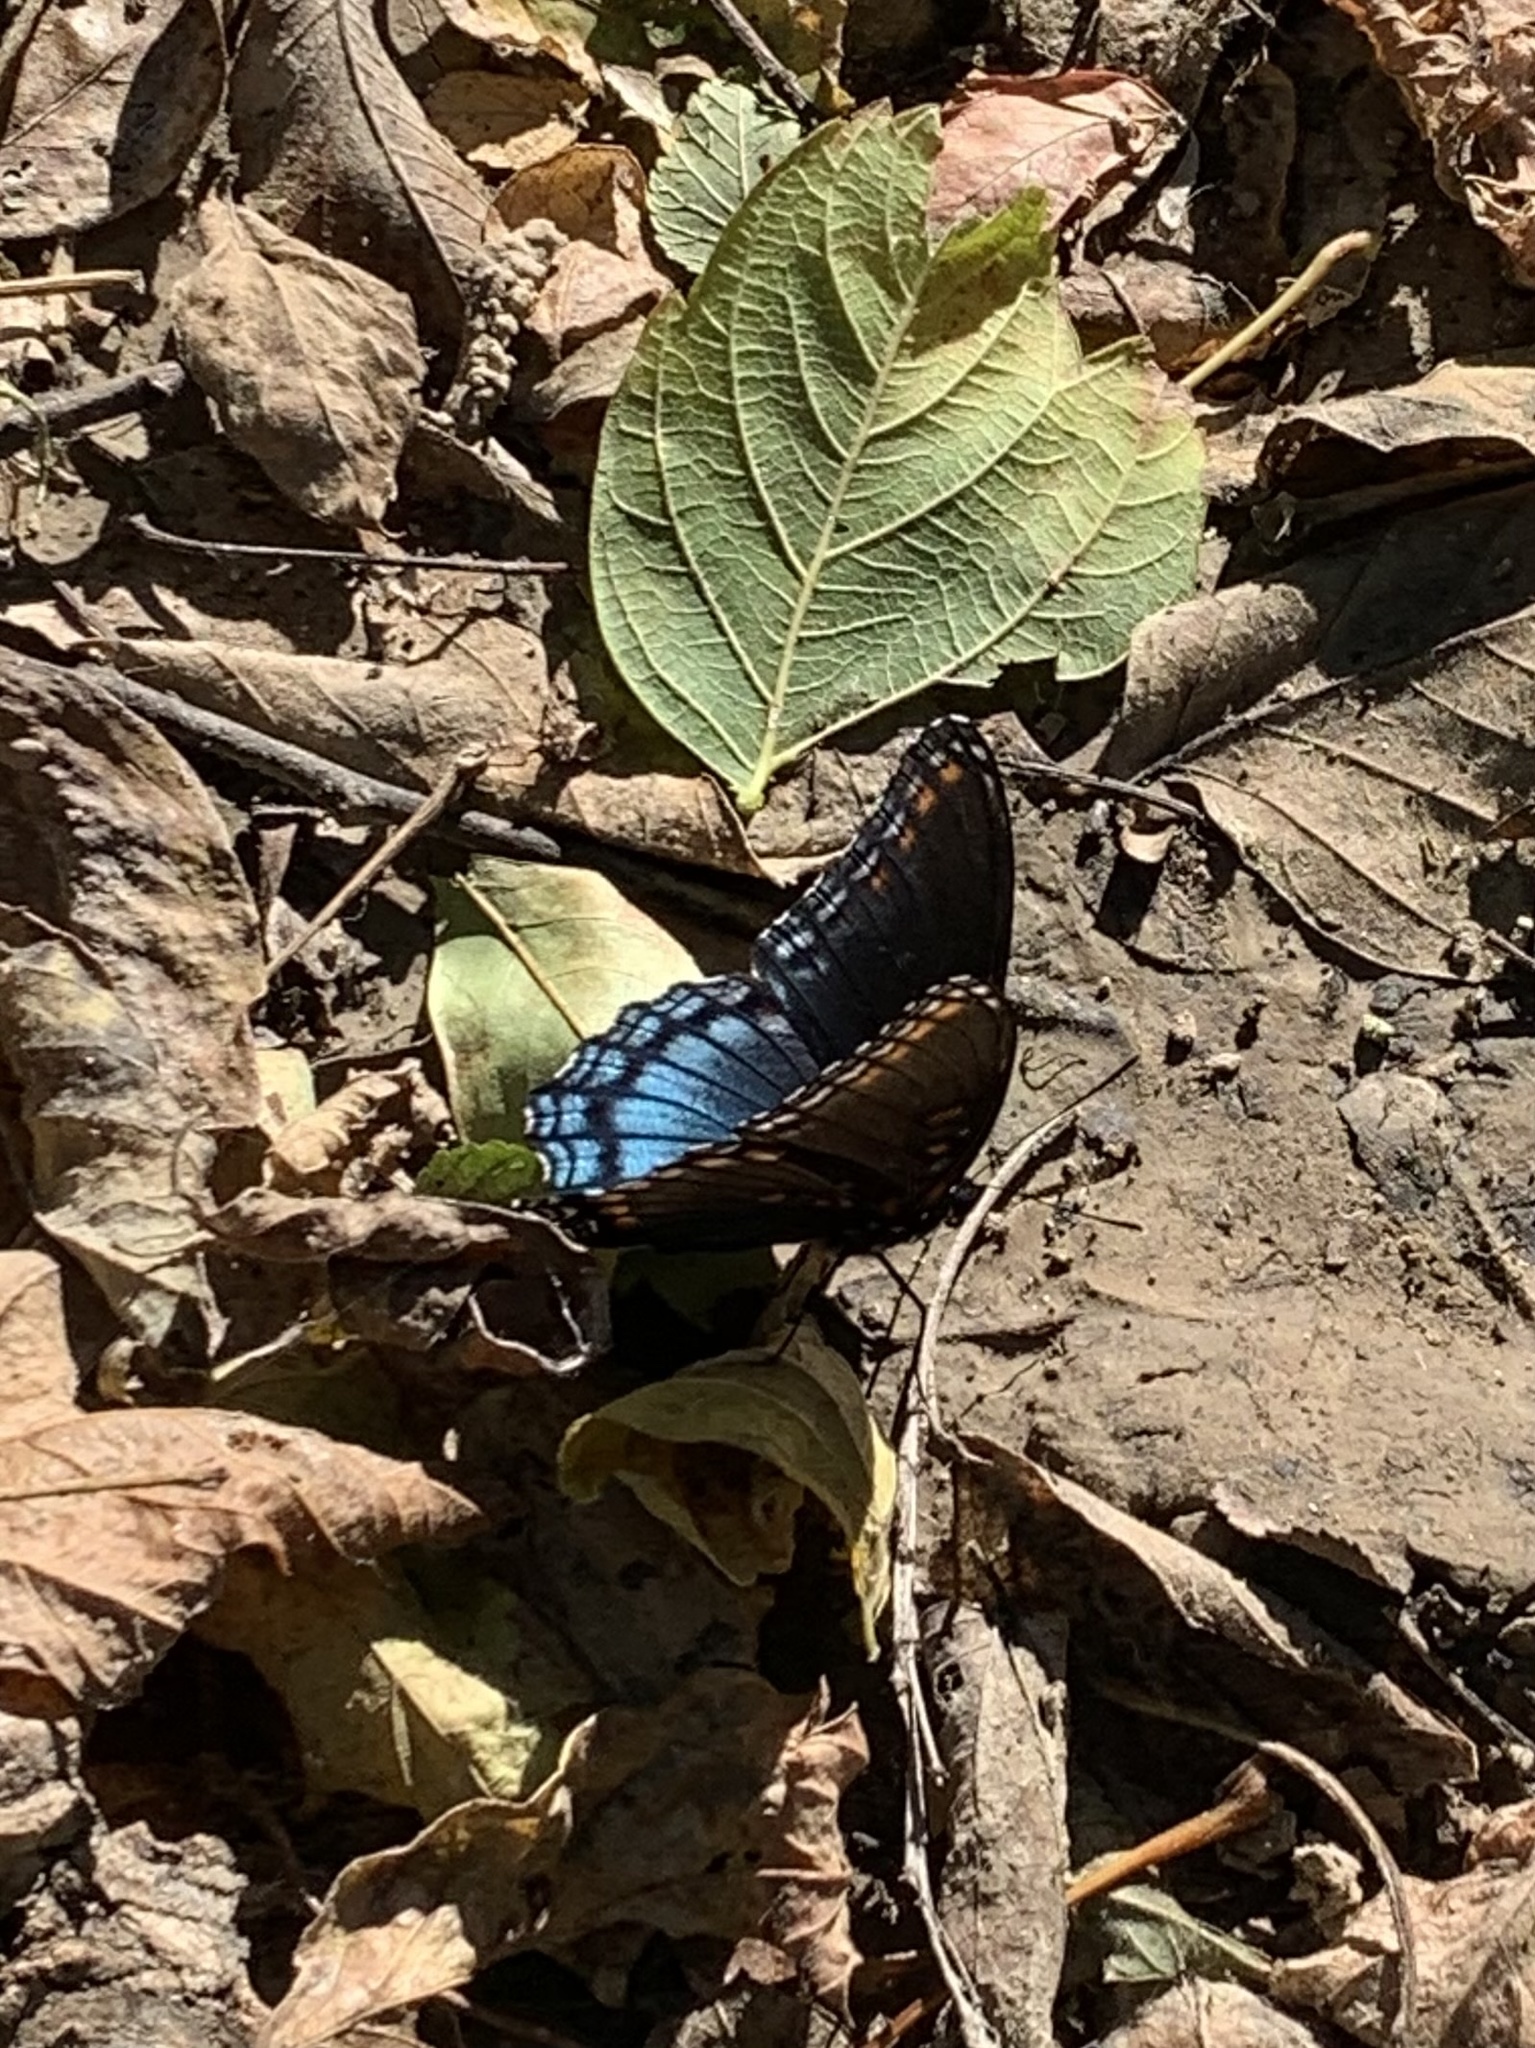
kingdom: Animalia
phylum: Arthropoda
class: Insecta
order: Lepidoptera
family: Nymphalidae
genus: Limenitis
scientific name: Limenitis arthemis
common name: Red-spotted admiral
